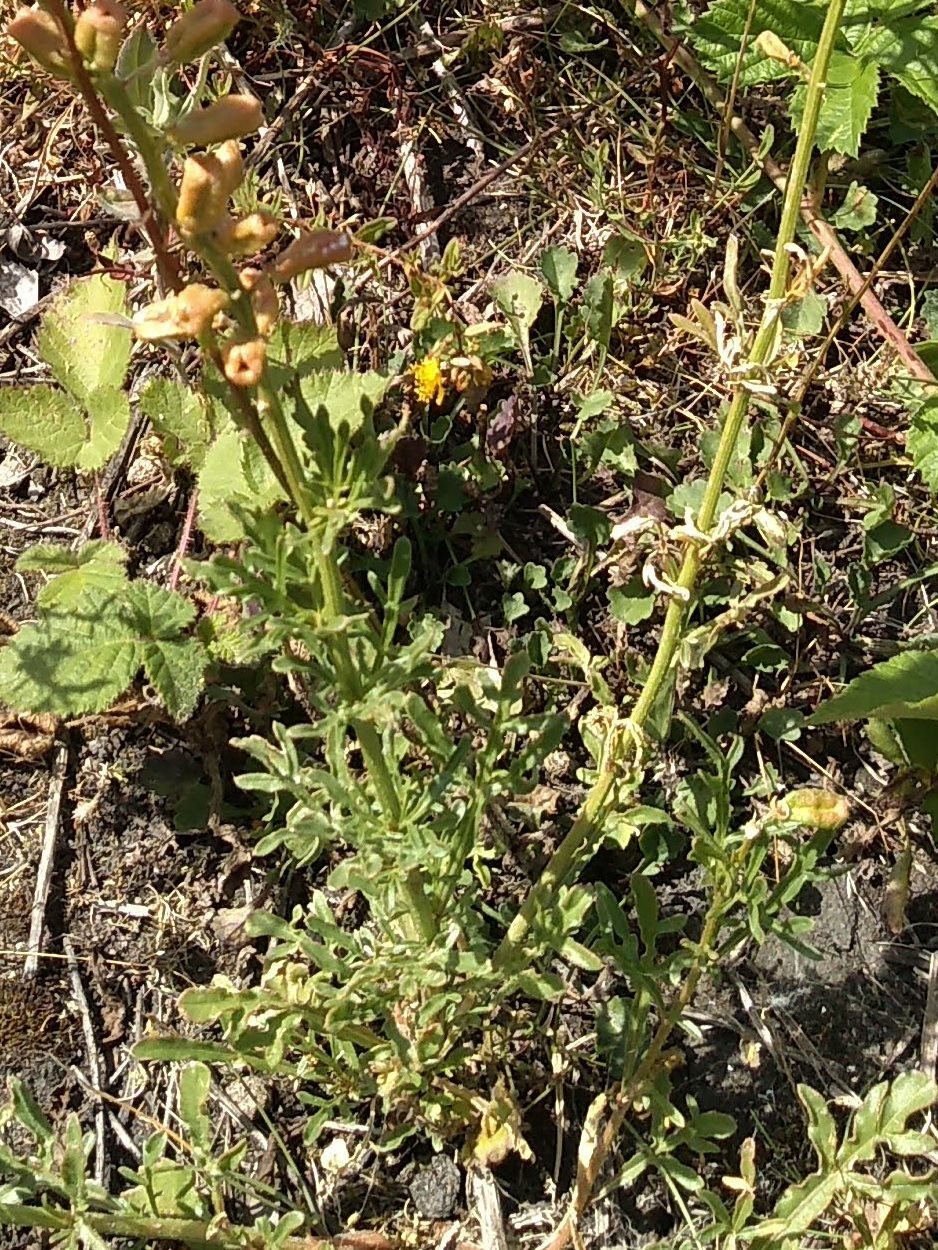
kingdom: Plantae
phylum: Tracheophyta
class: Magnoliopsida
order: Brassicales
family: Resedaceae
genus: Reseda
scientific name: Reseda lutea
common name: Wild mignonette
